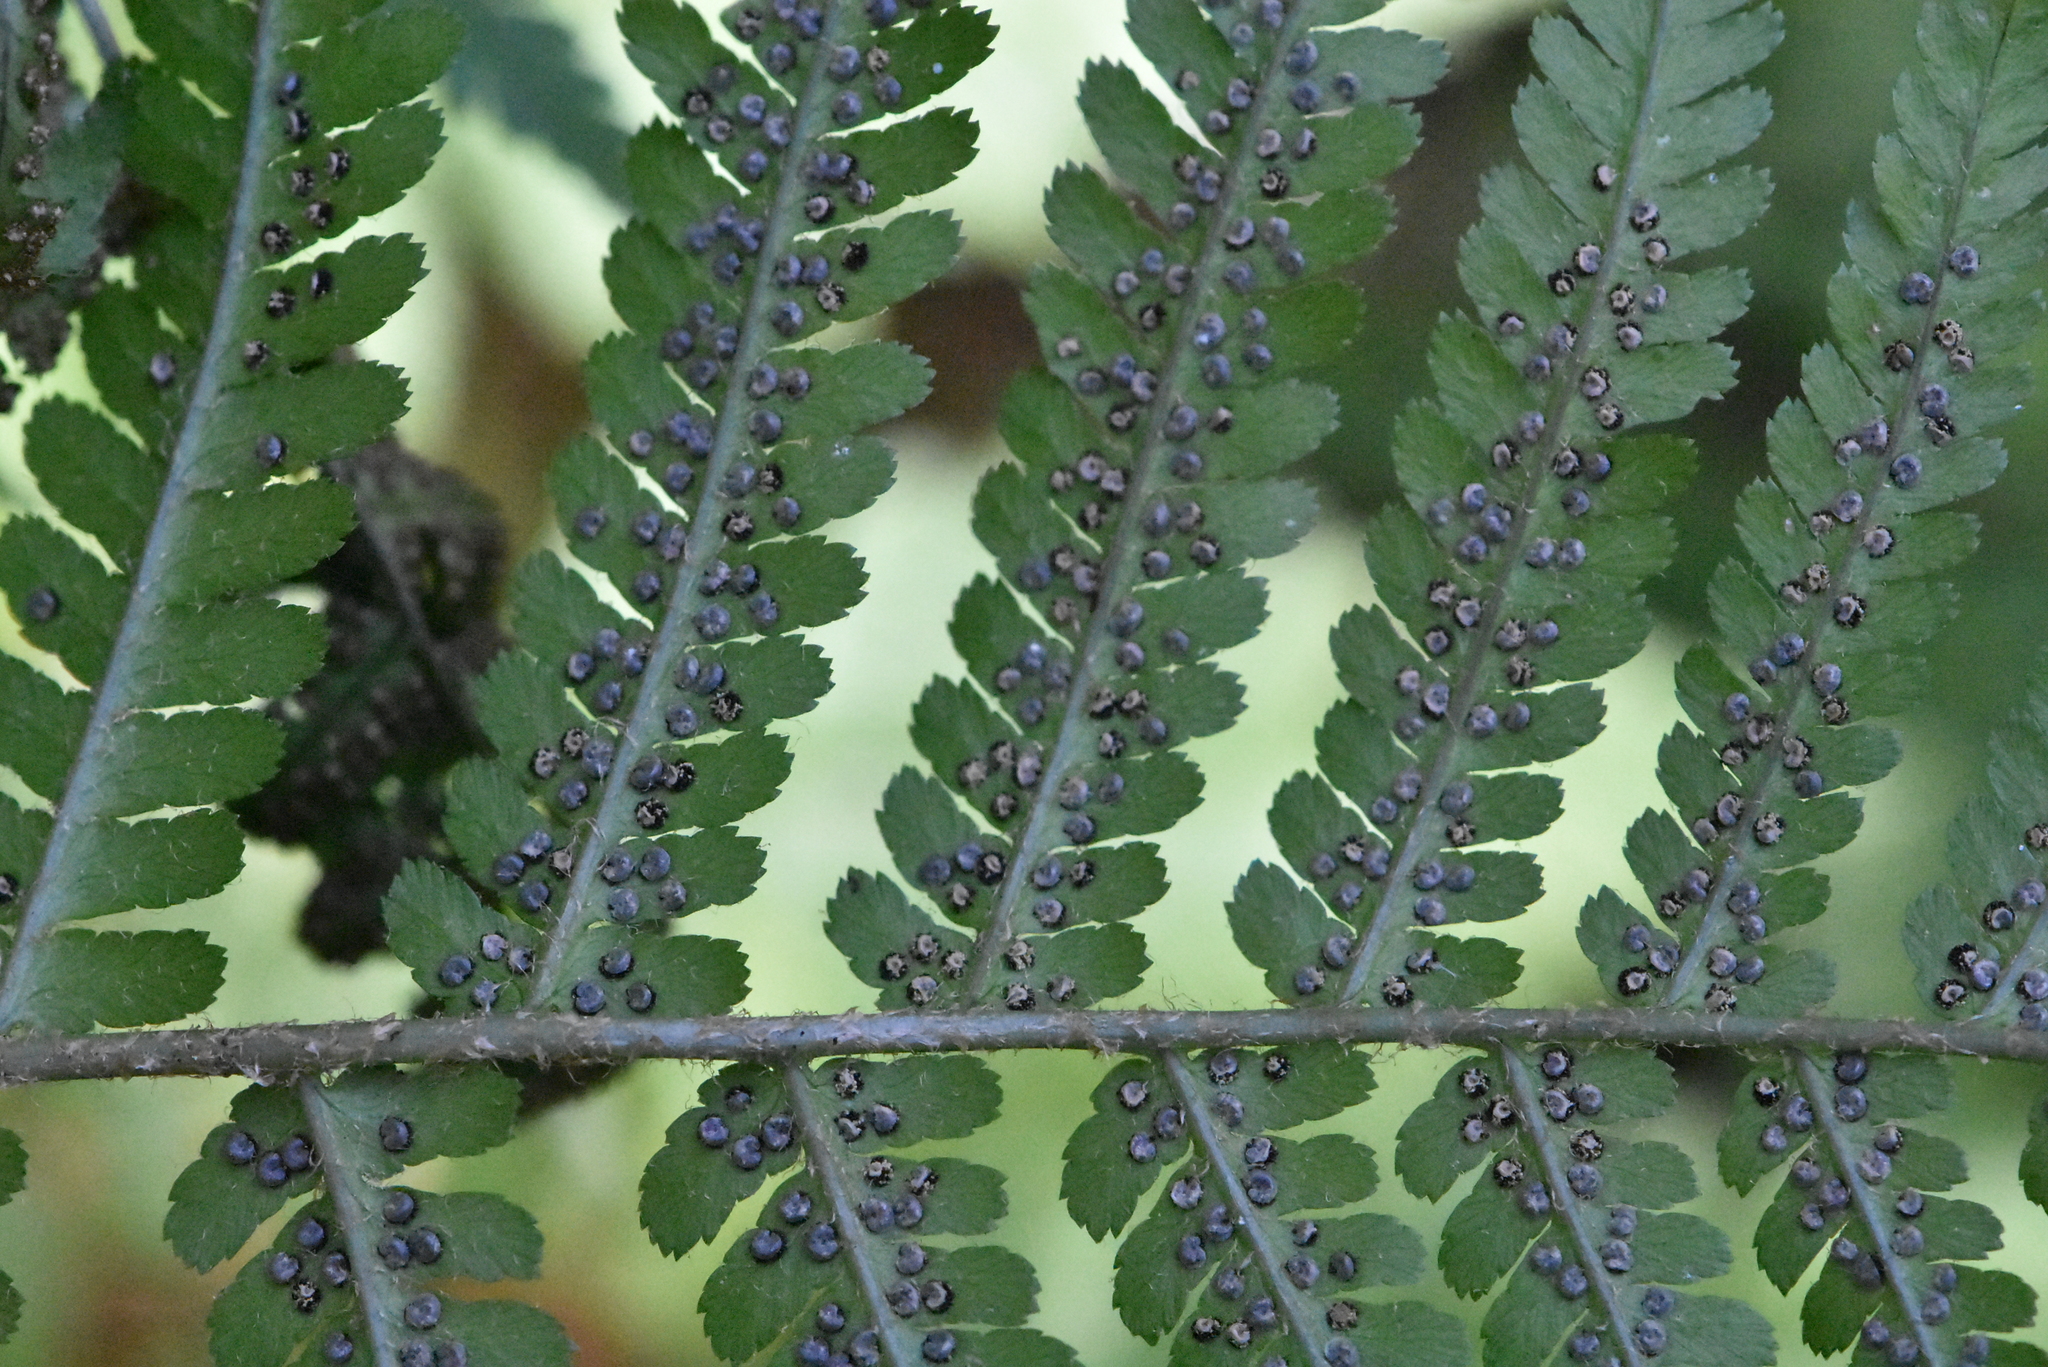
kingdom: Plantae
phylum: Tracheophyta
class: Polypodiopsida
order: Polypodiales
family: Dryopteridaceae
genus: Dryopteris
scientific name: Dryopteris filix-mas
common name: Male fern
